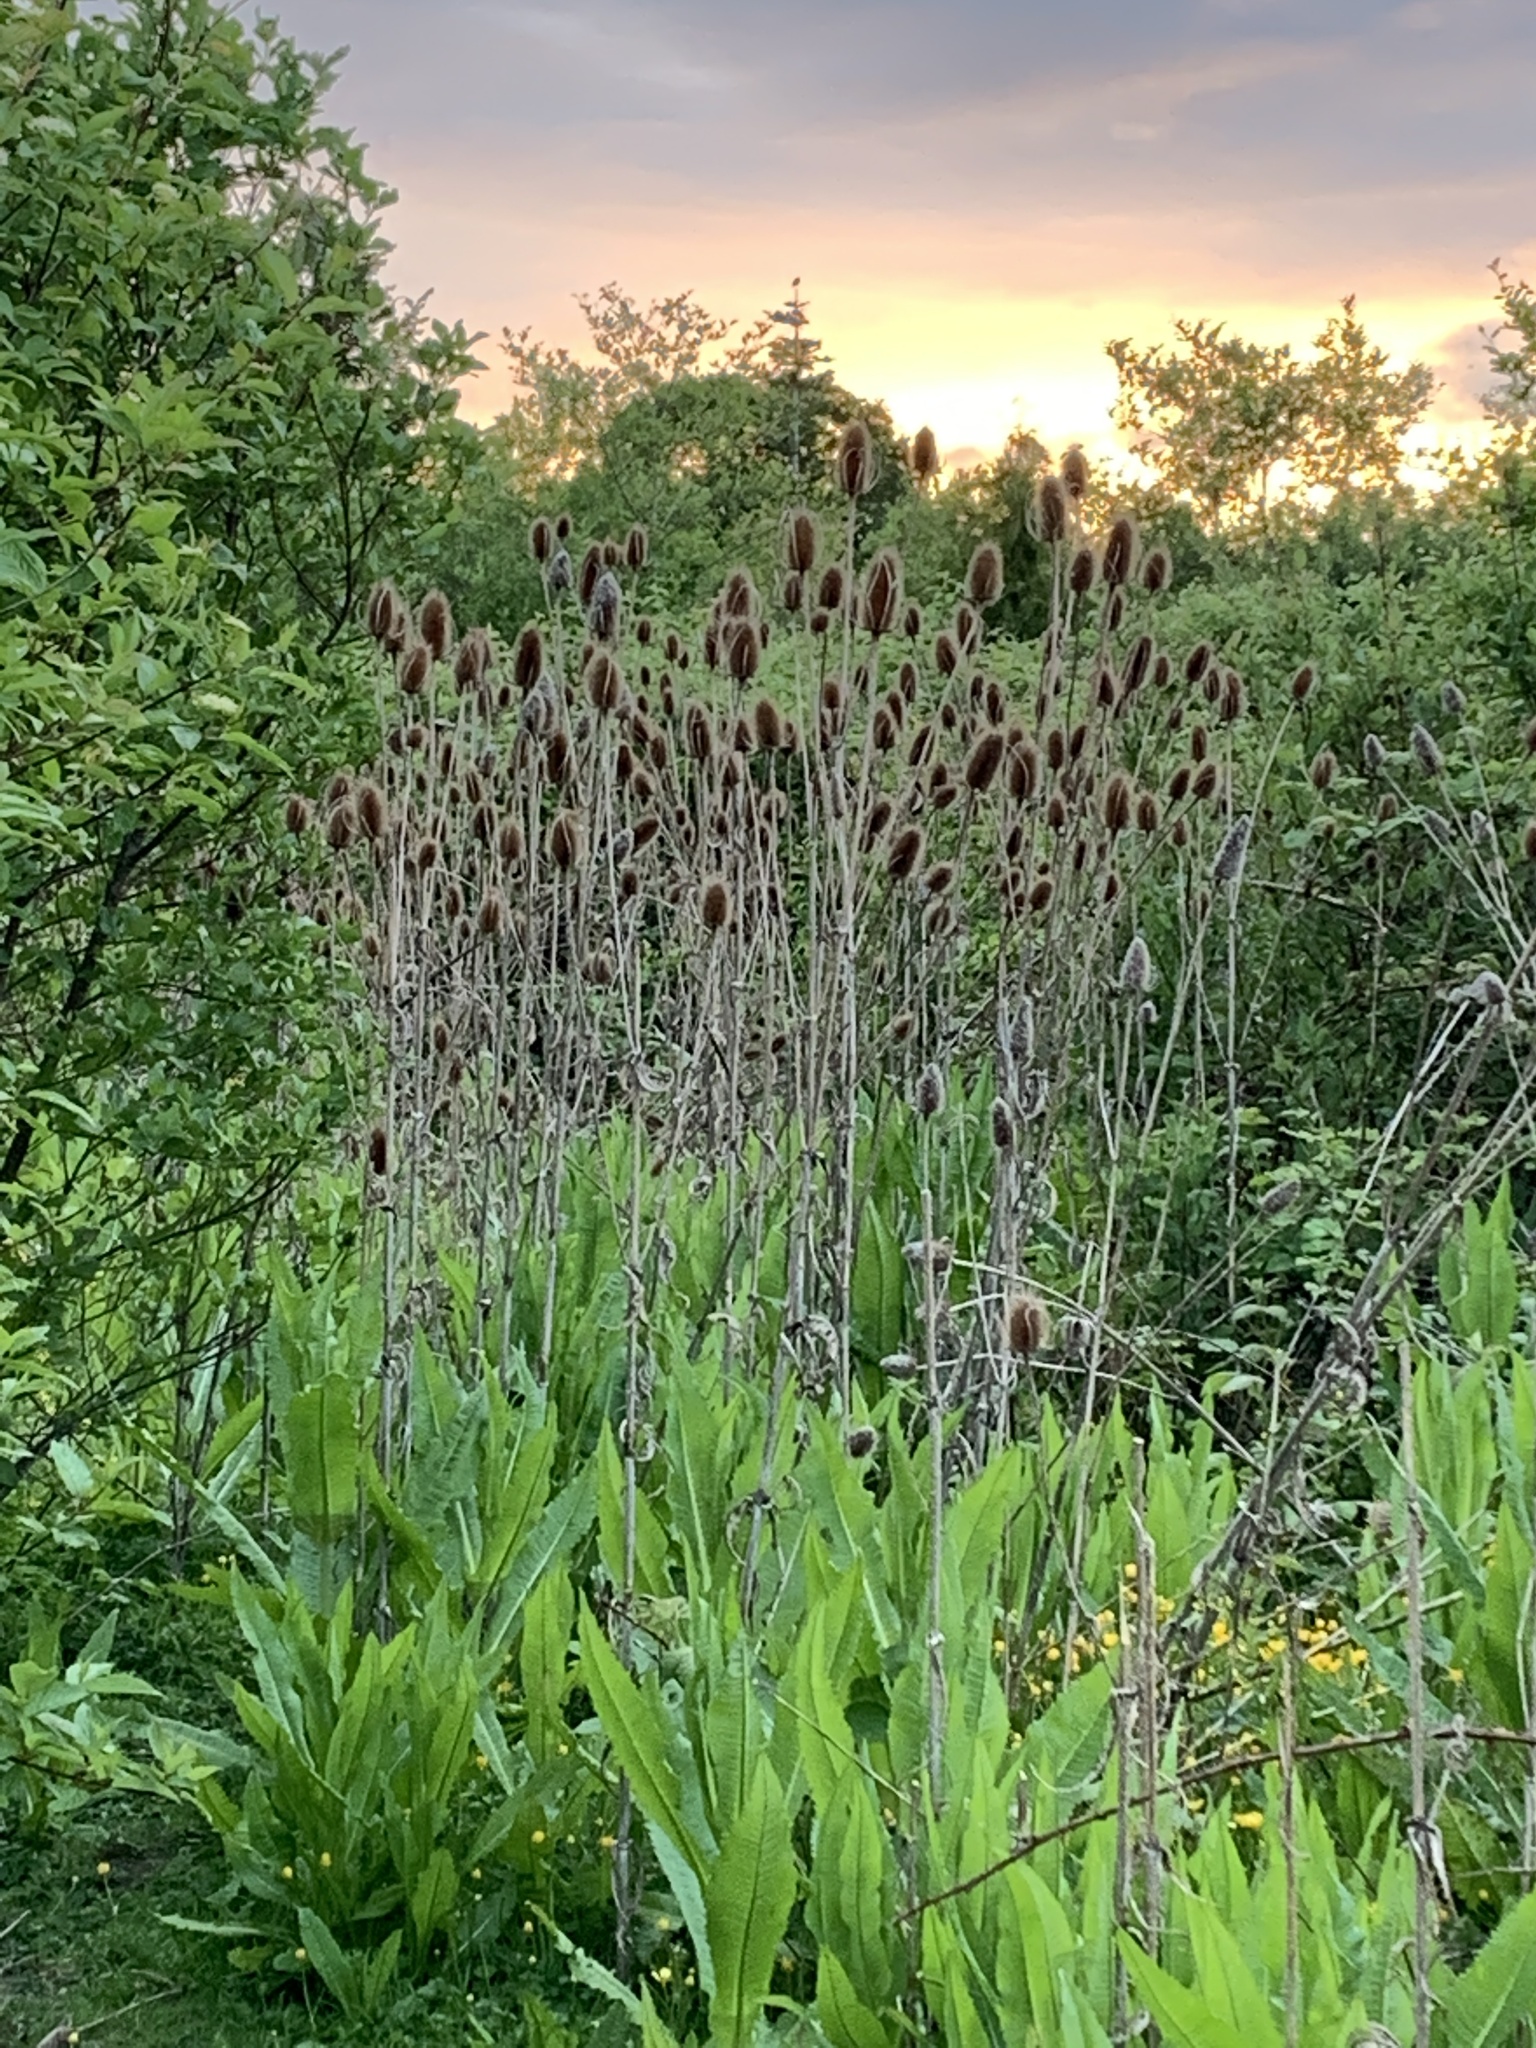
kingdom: Plantae
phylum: Tracheophyta
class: Magnoliopsida
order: Dipsacales
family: Caprifoliaceae
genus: Dipsacus
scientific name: Dipsacus fullonum
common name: Teasel
